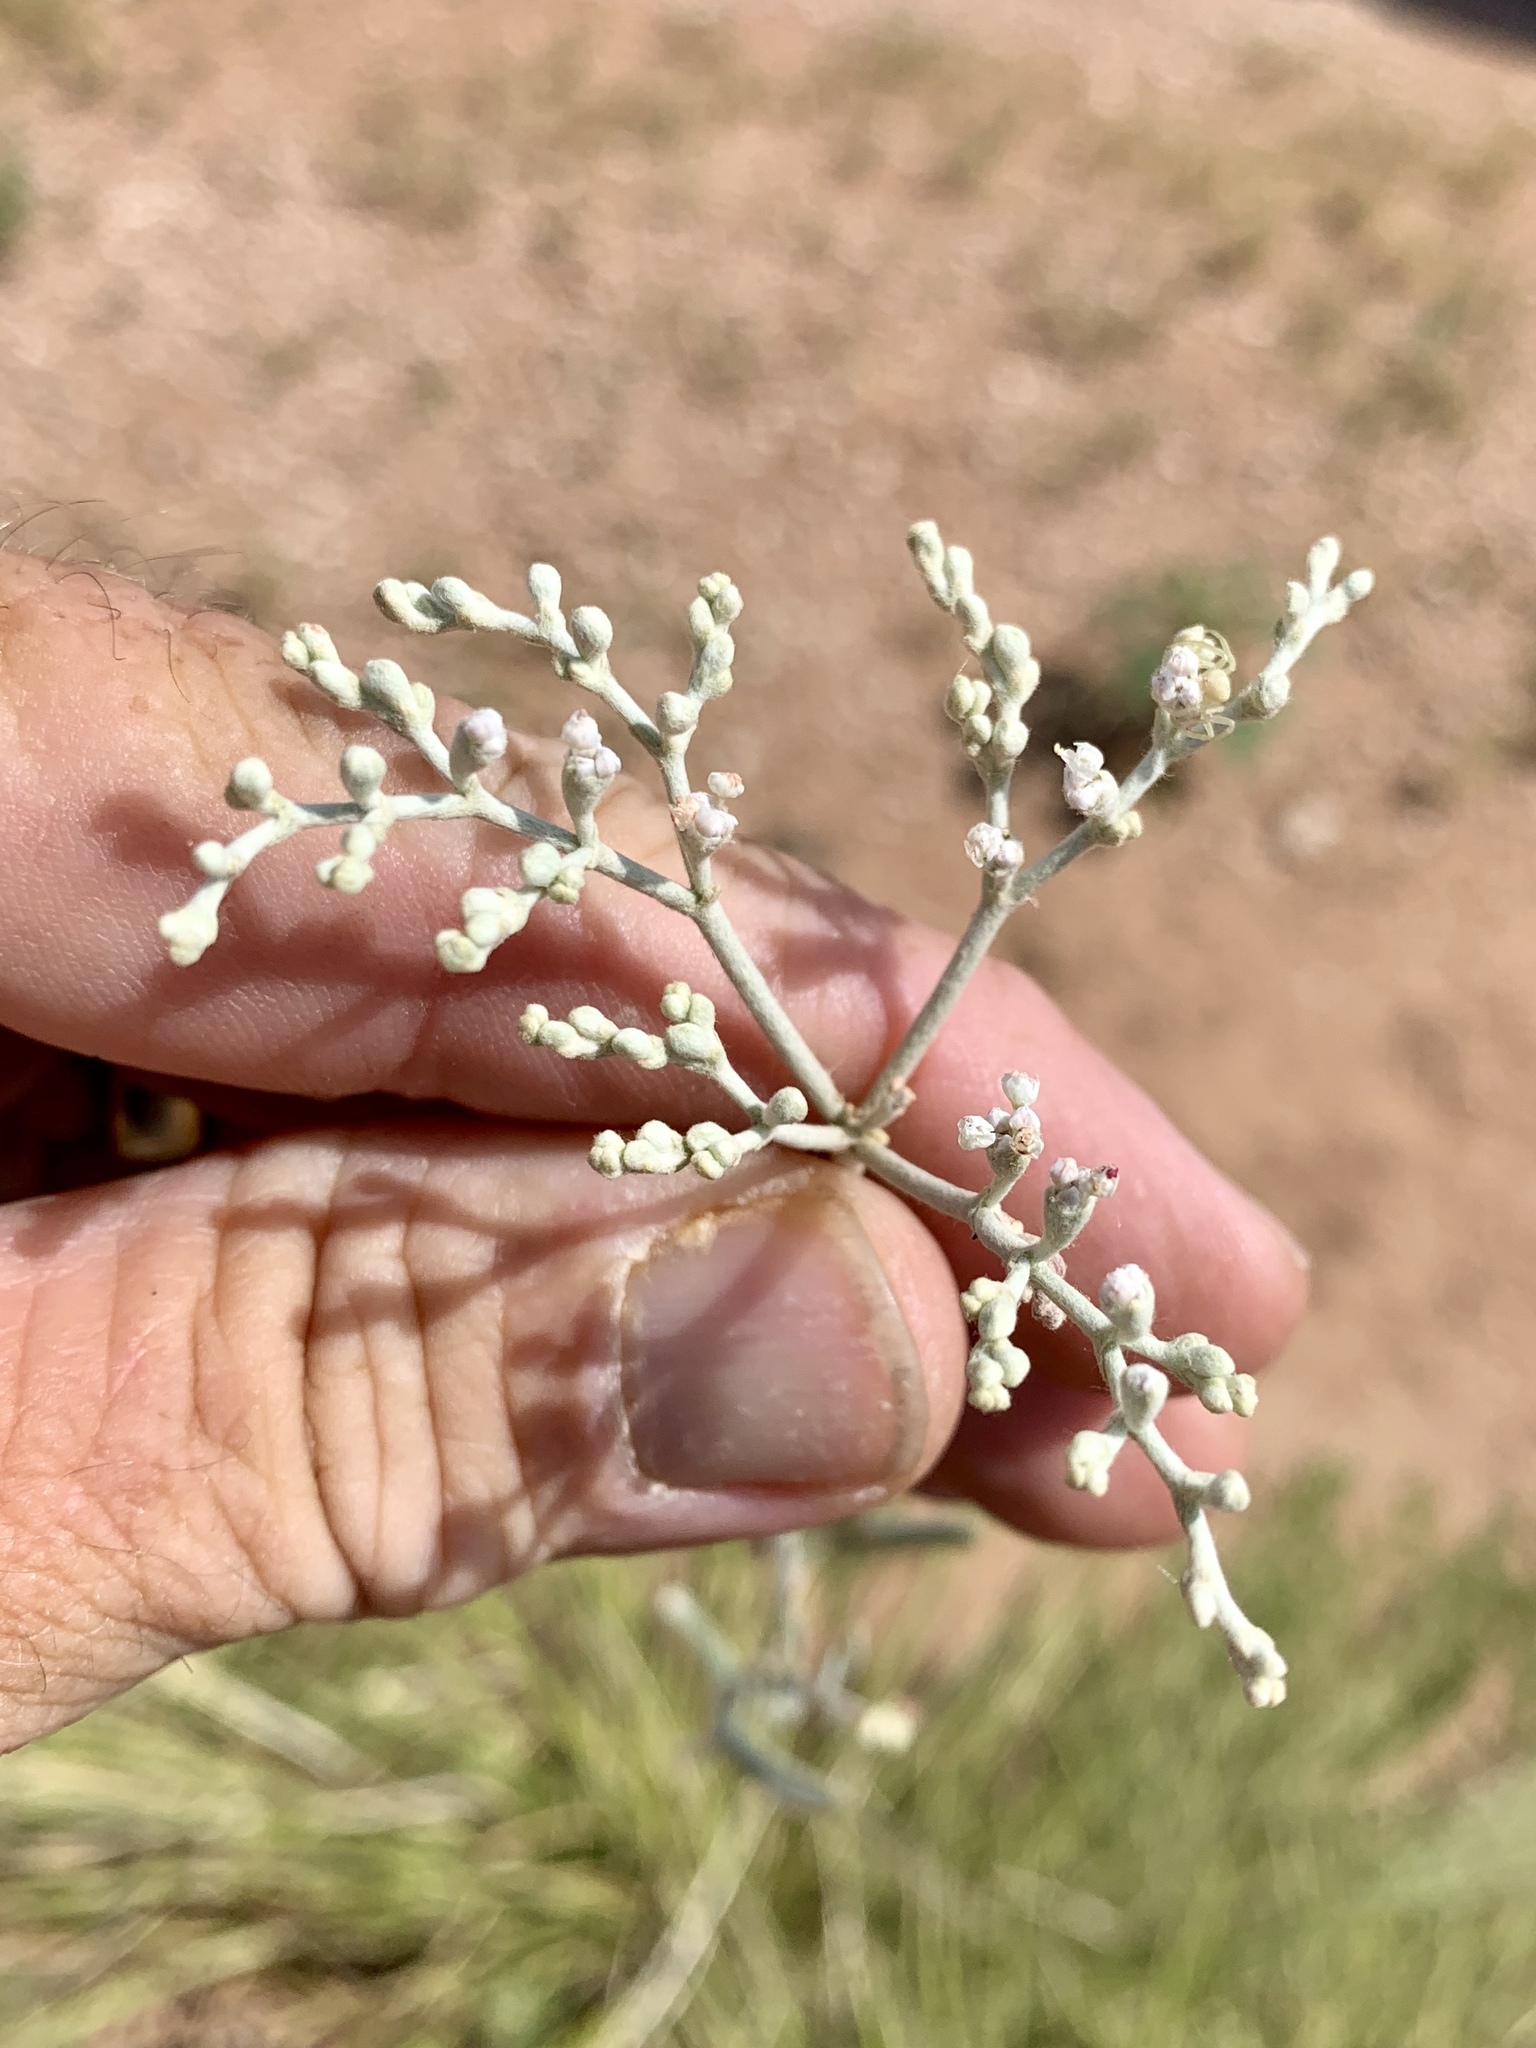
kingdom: Plantae
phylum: Tracheophyta
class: Magnoliopsida
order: Caryophyllales
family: Polygonaceae
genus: Eriogonum
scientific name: Eriogonum annuum
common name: Annual wild buckwheat
